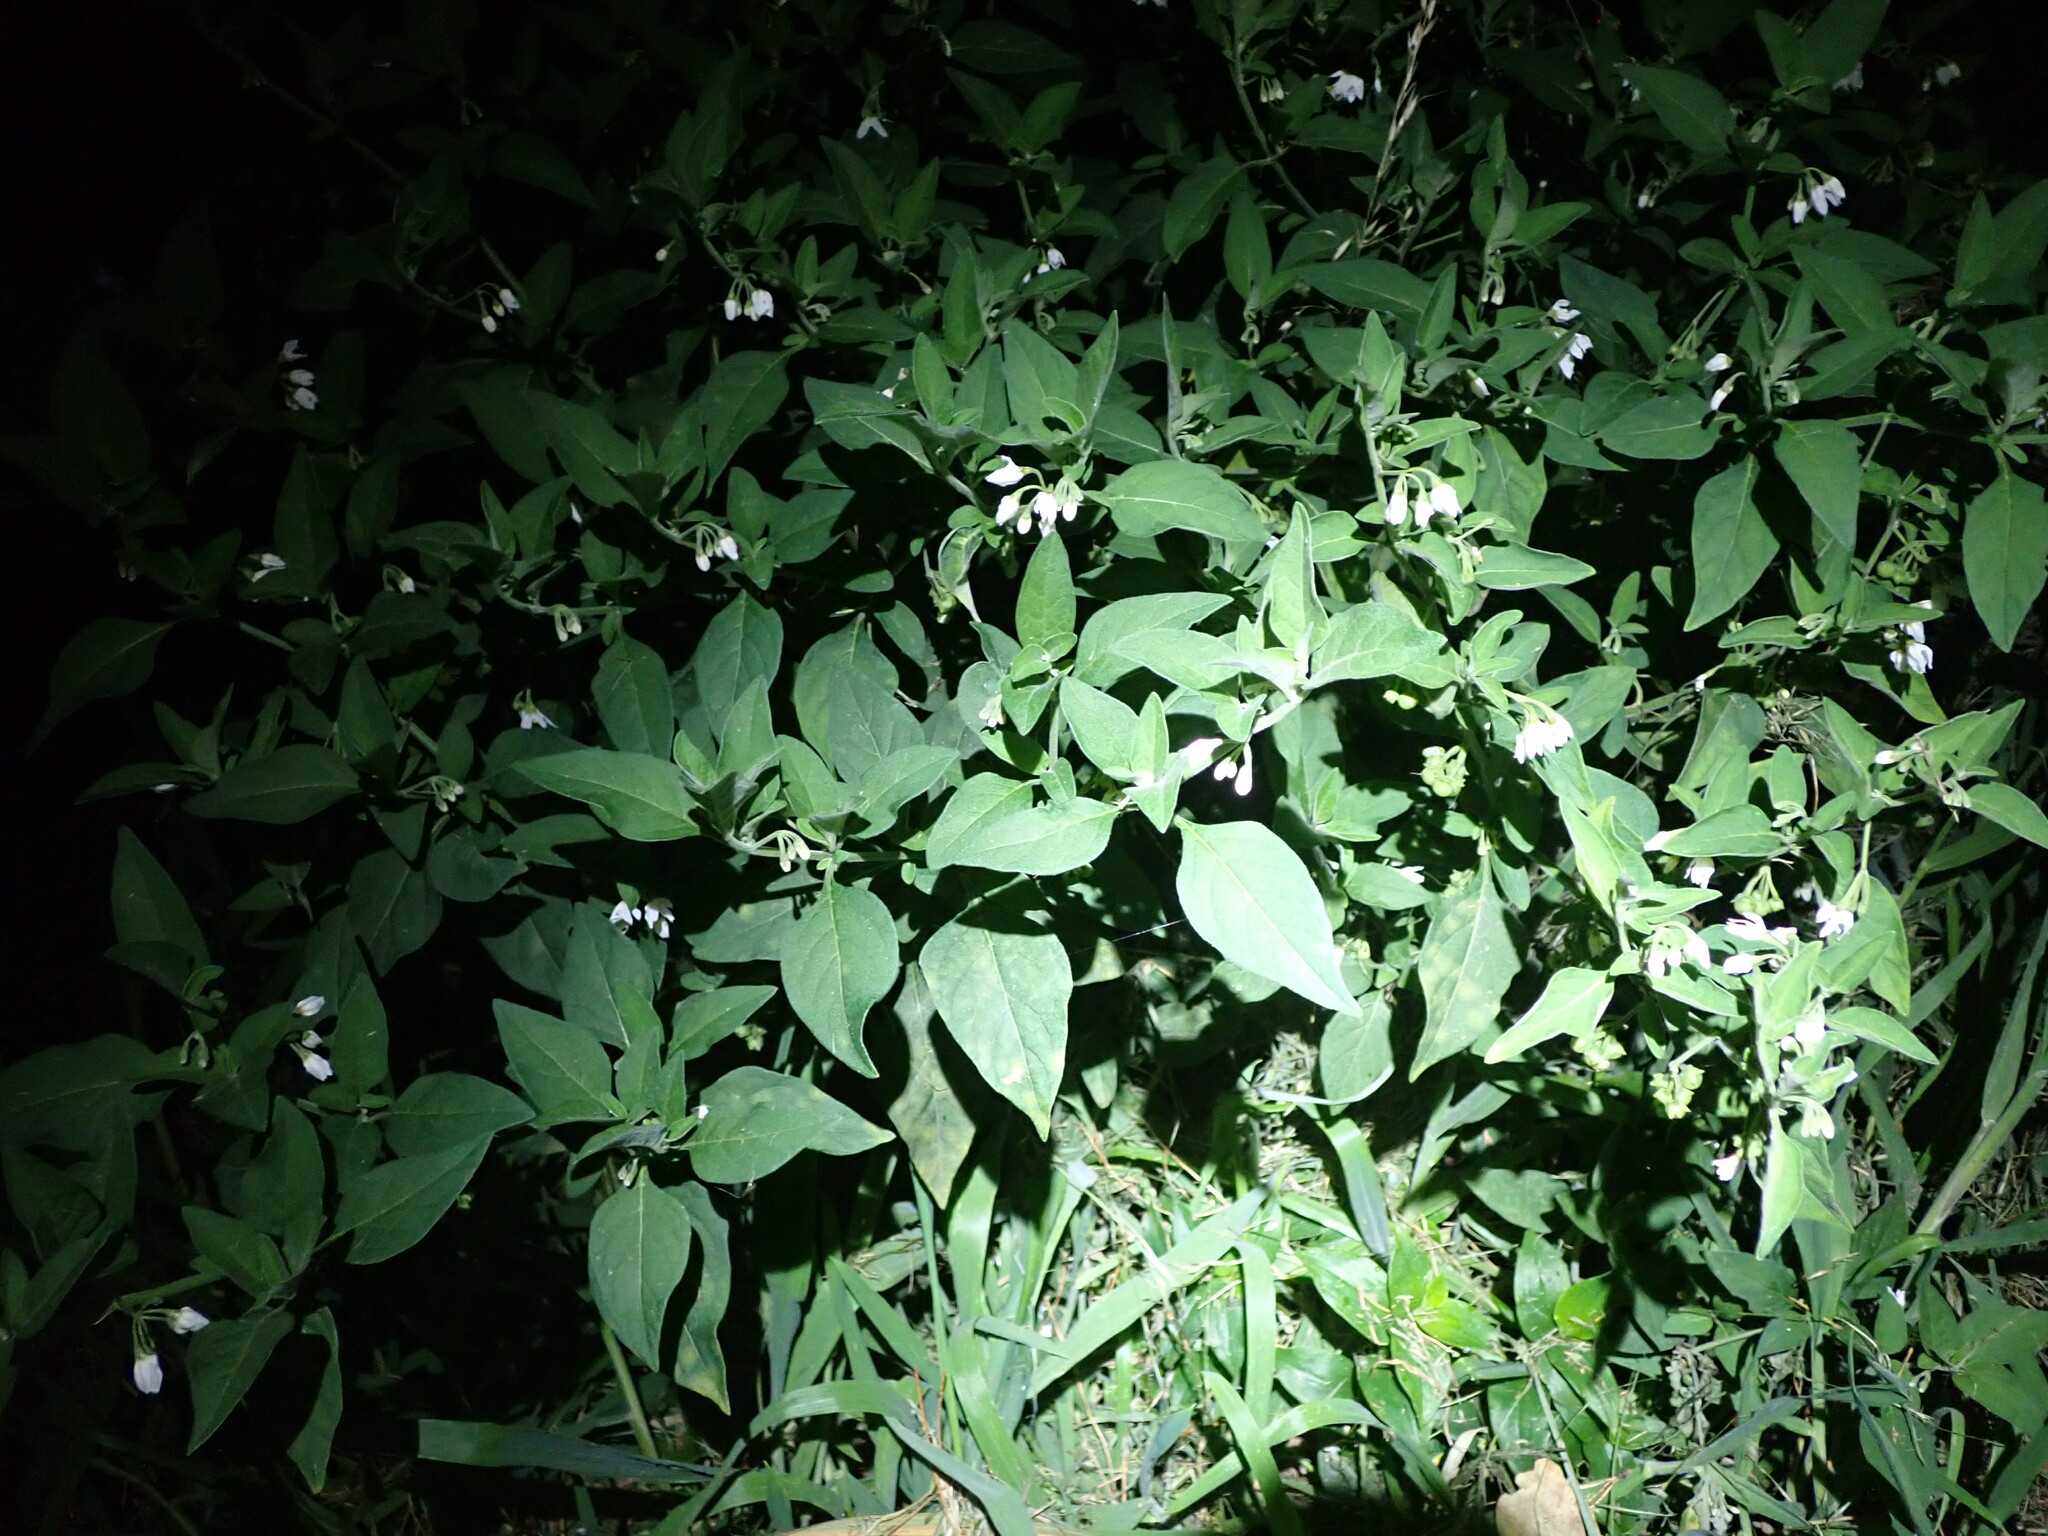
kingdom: Plantae
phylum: Tracheophyta
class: Magnoliopsida
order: Solanales
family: Solanaceae
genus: Solanum
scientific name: Solanum chenopodioides
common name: Tall nightshade
